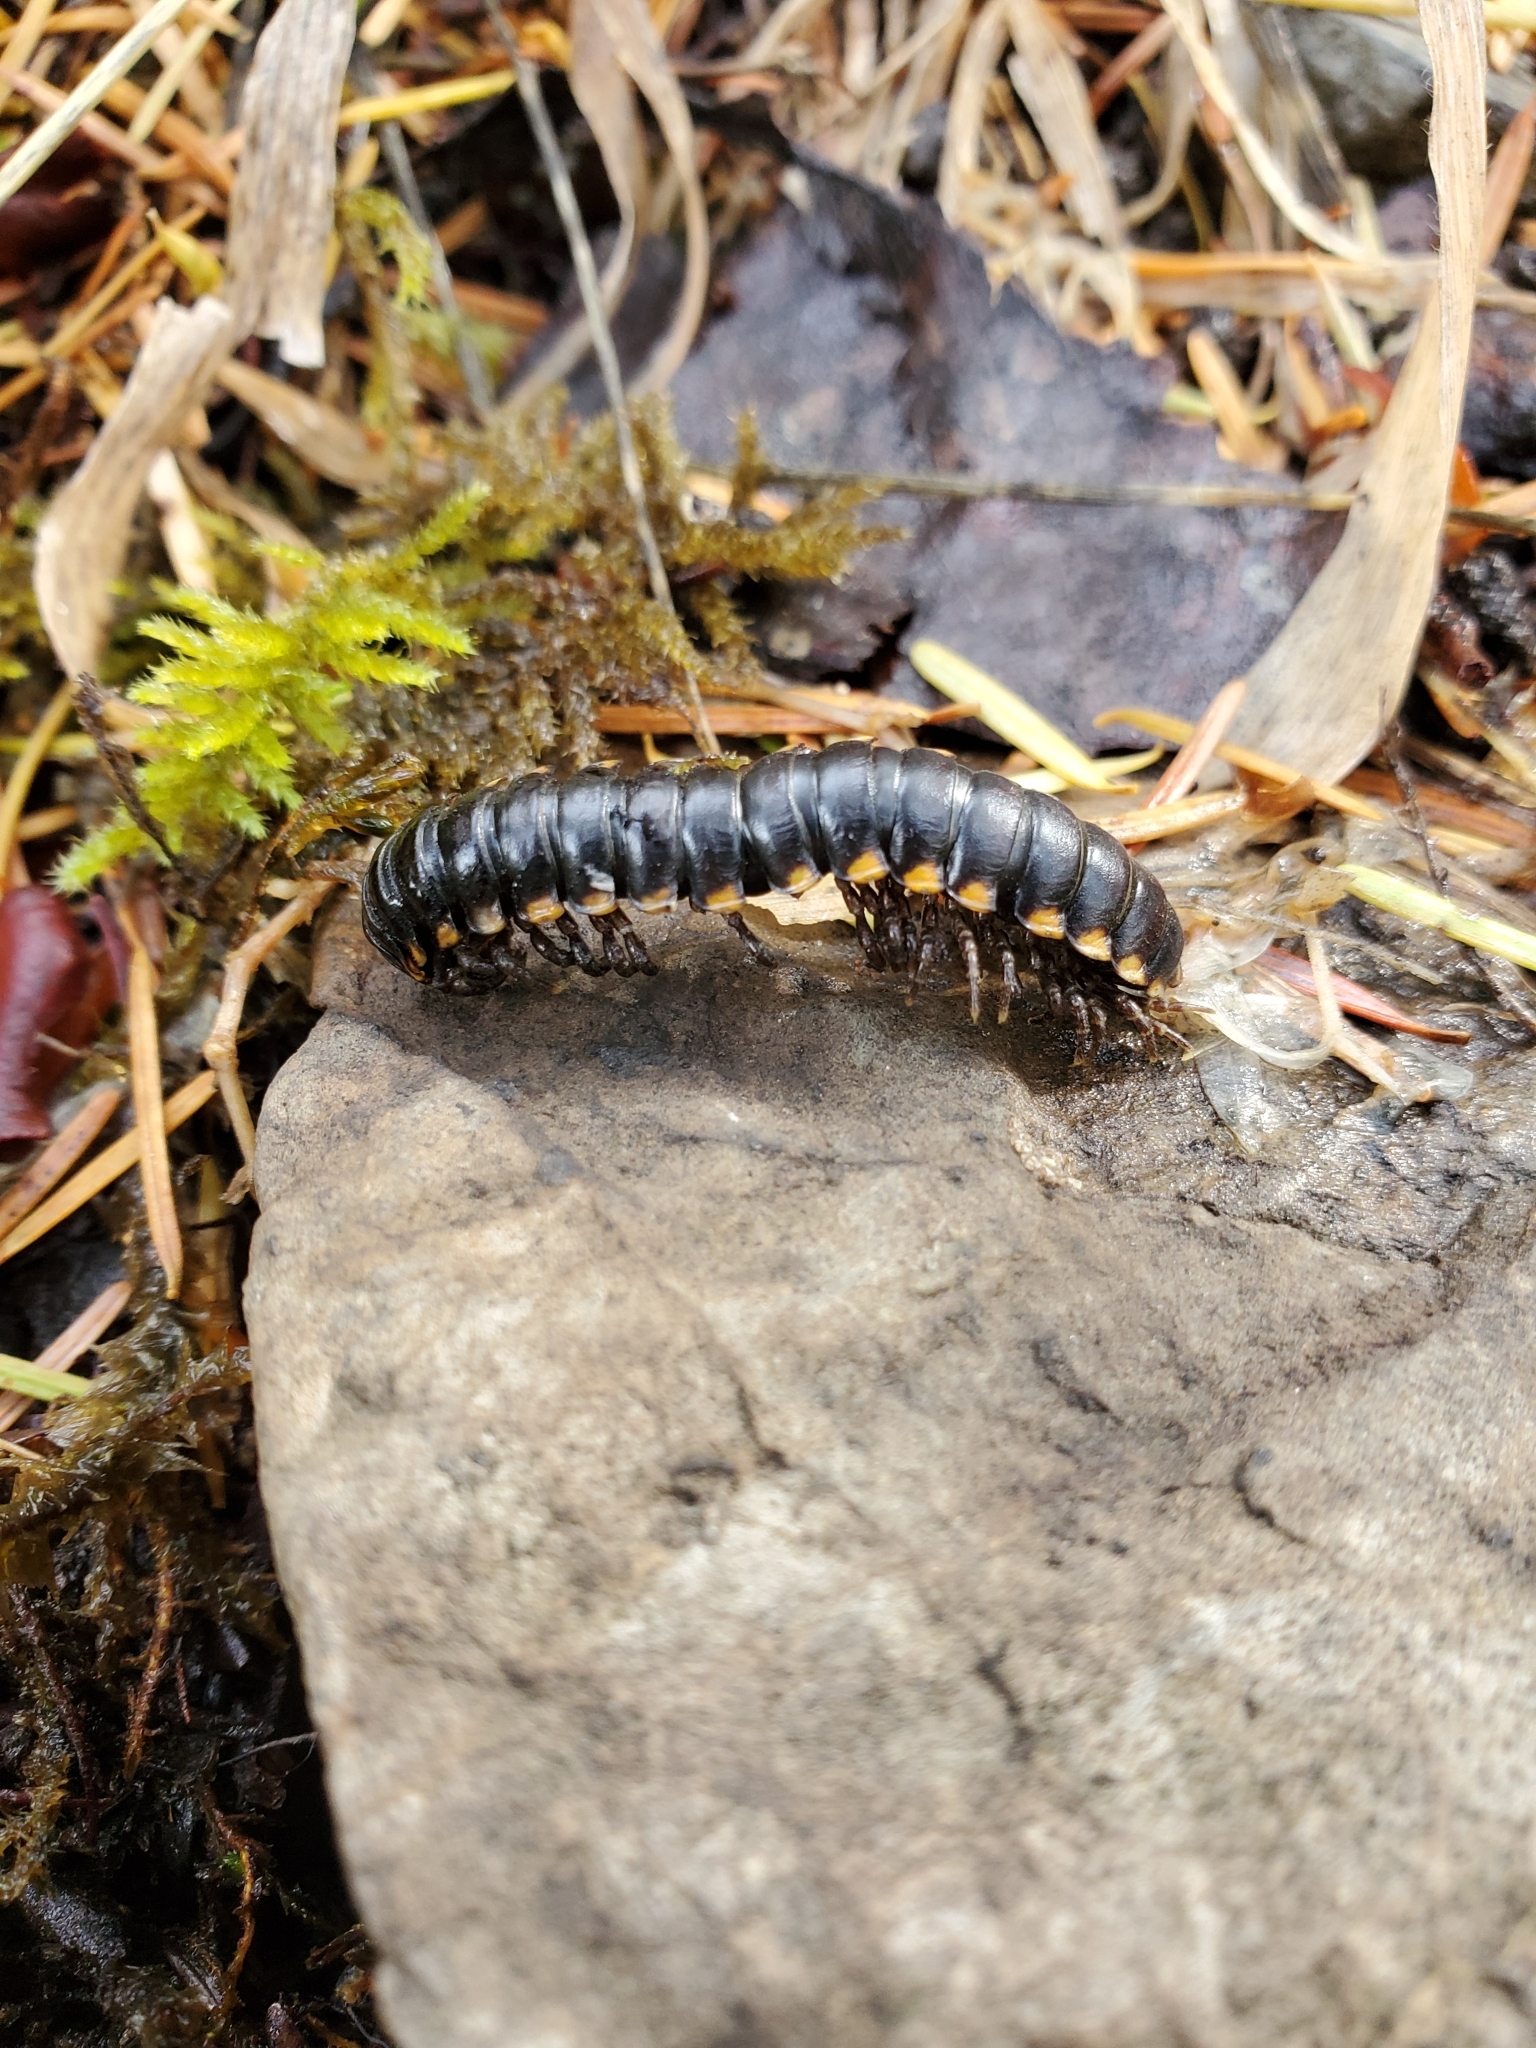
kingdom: Animalia
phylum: Arthropoda
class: Diplopoda
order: Polydesmida
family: Xystodesmidae
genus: Harpaphe
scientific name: Harpaphe haydeniana
